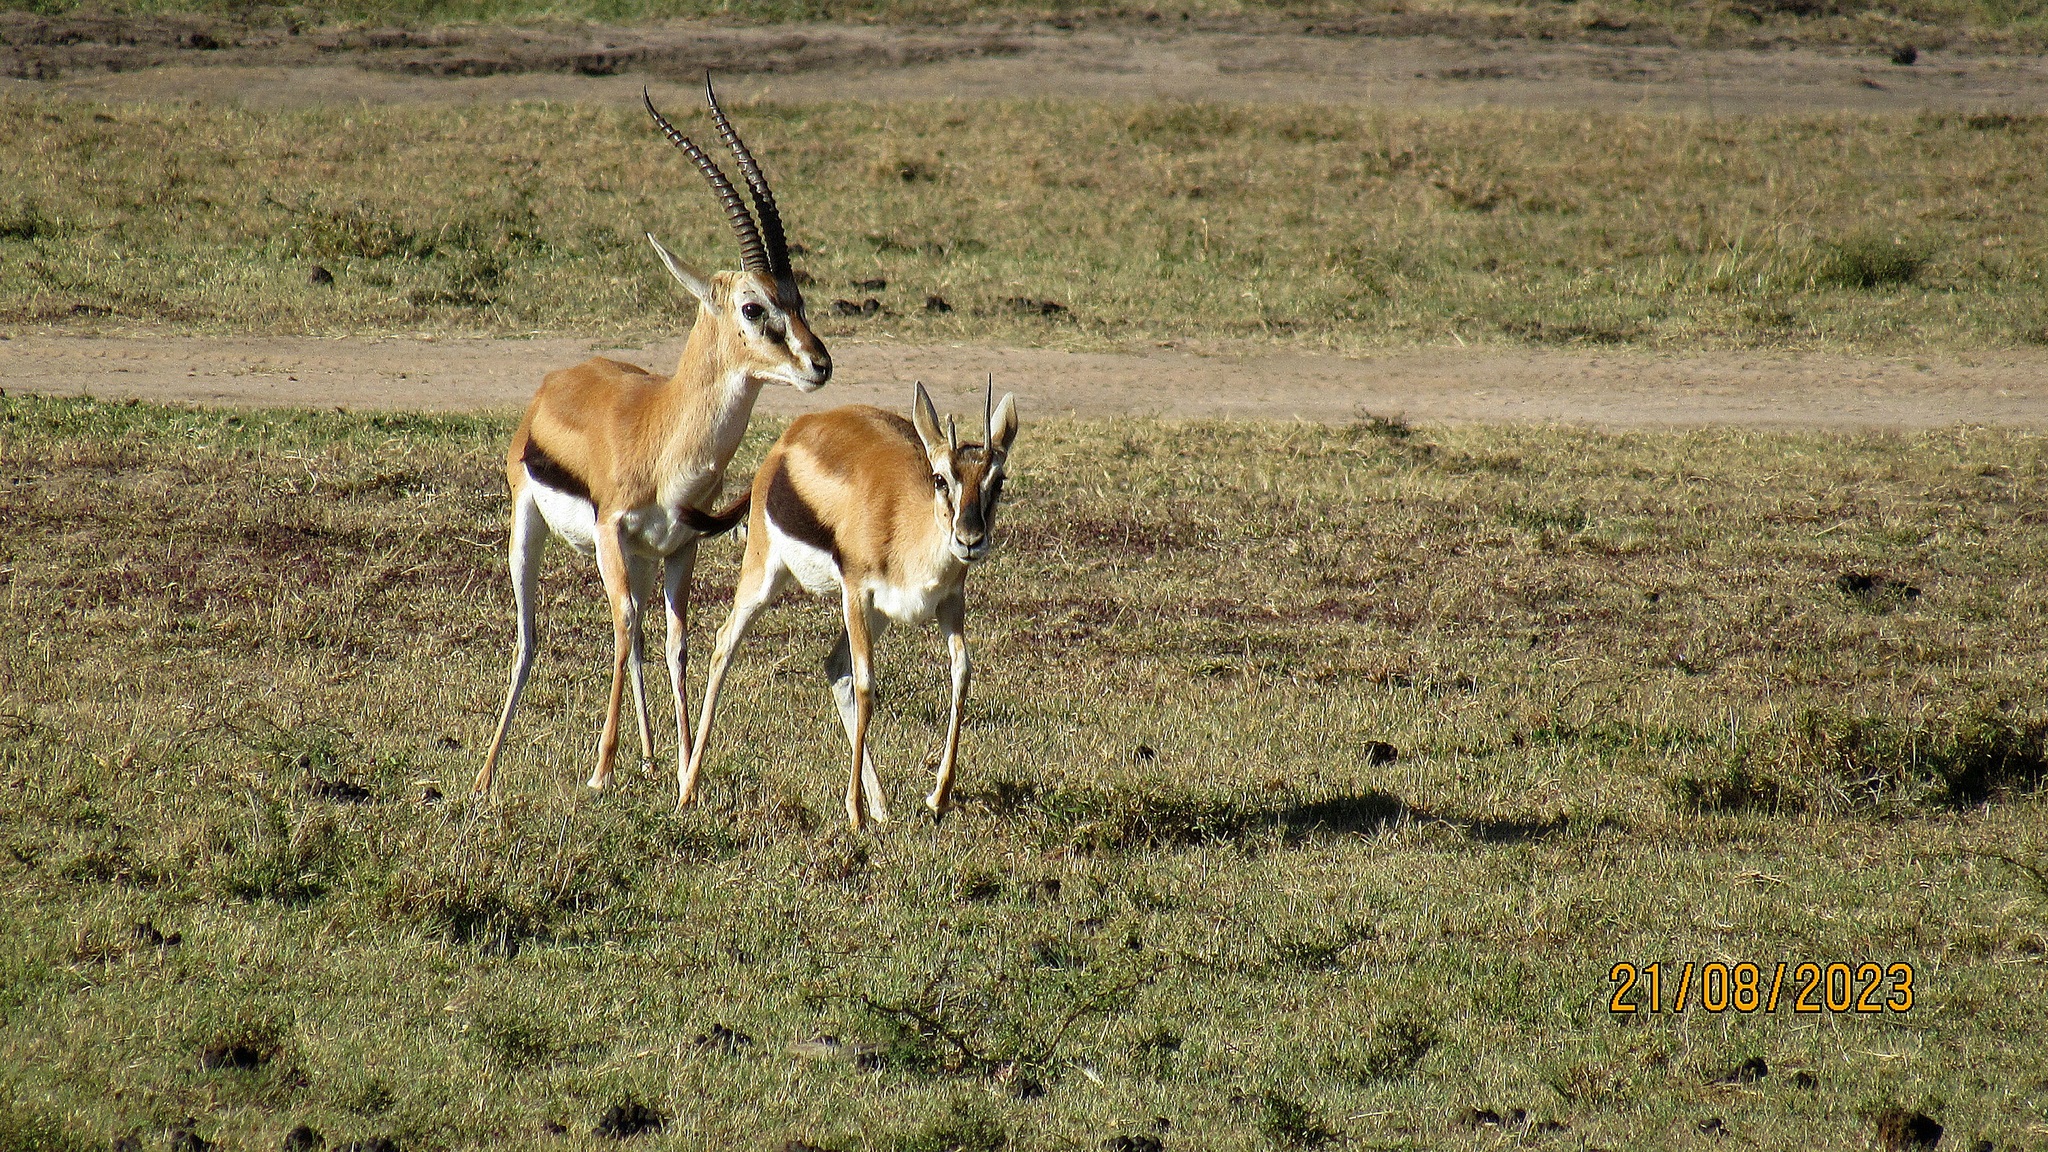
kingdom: Animalia
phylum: Chordata
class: Mammalia
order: Artiodactyla
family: Bovidae
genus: Eudorcas
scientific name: Eudorcas thomsonii
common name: Thomson's gazelle
